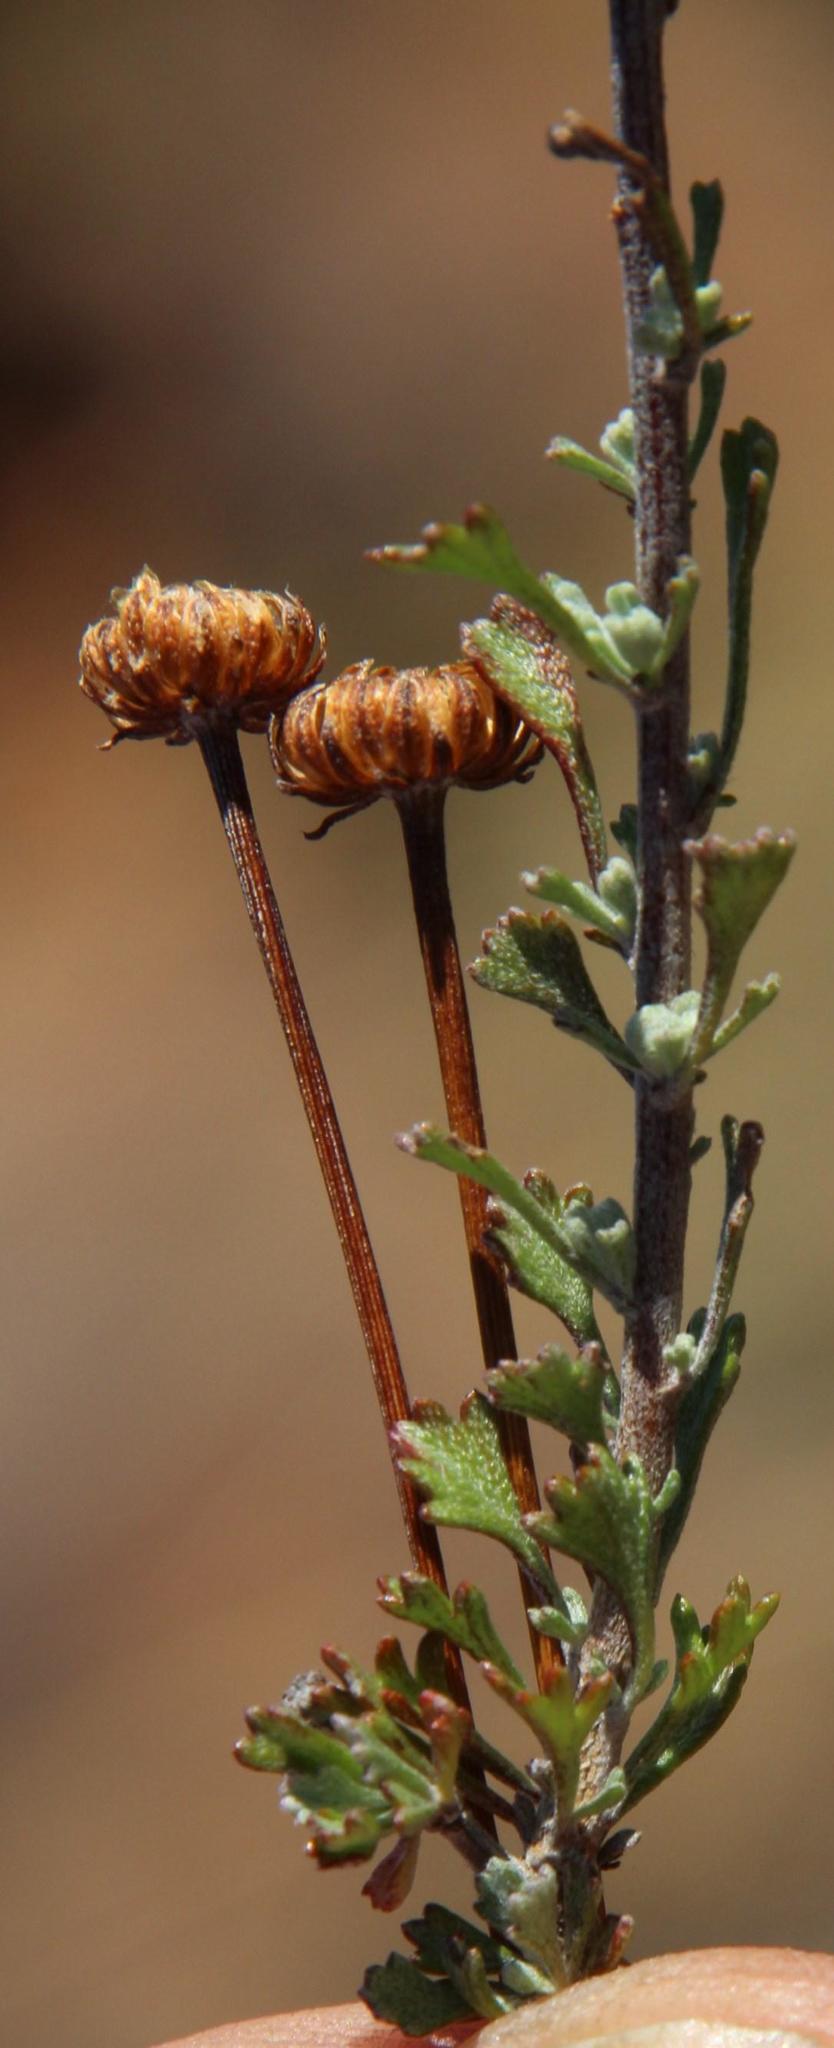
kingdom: Plantae
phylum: Tracheophyta
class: Magnoliopsida
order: Asterales
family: Asteraceae
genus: Pentzia
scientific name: Pentzia quinquefida
